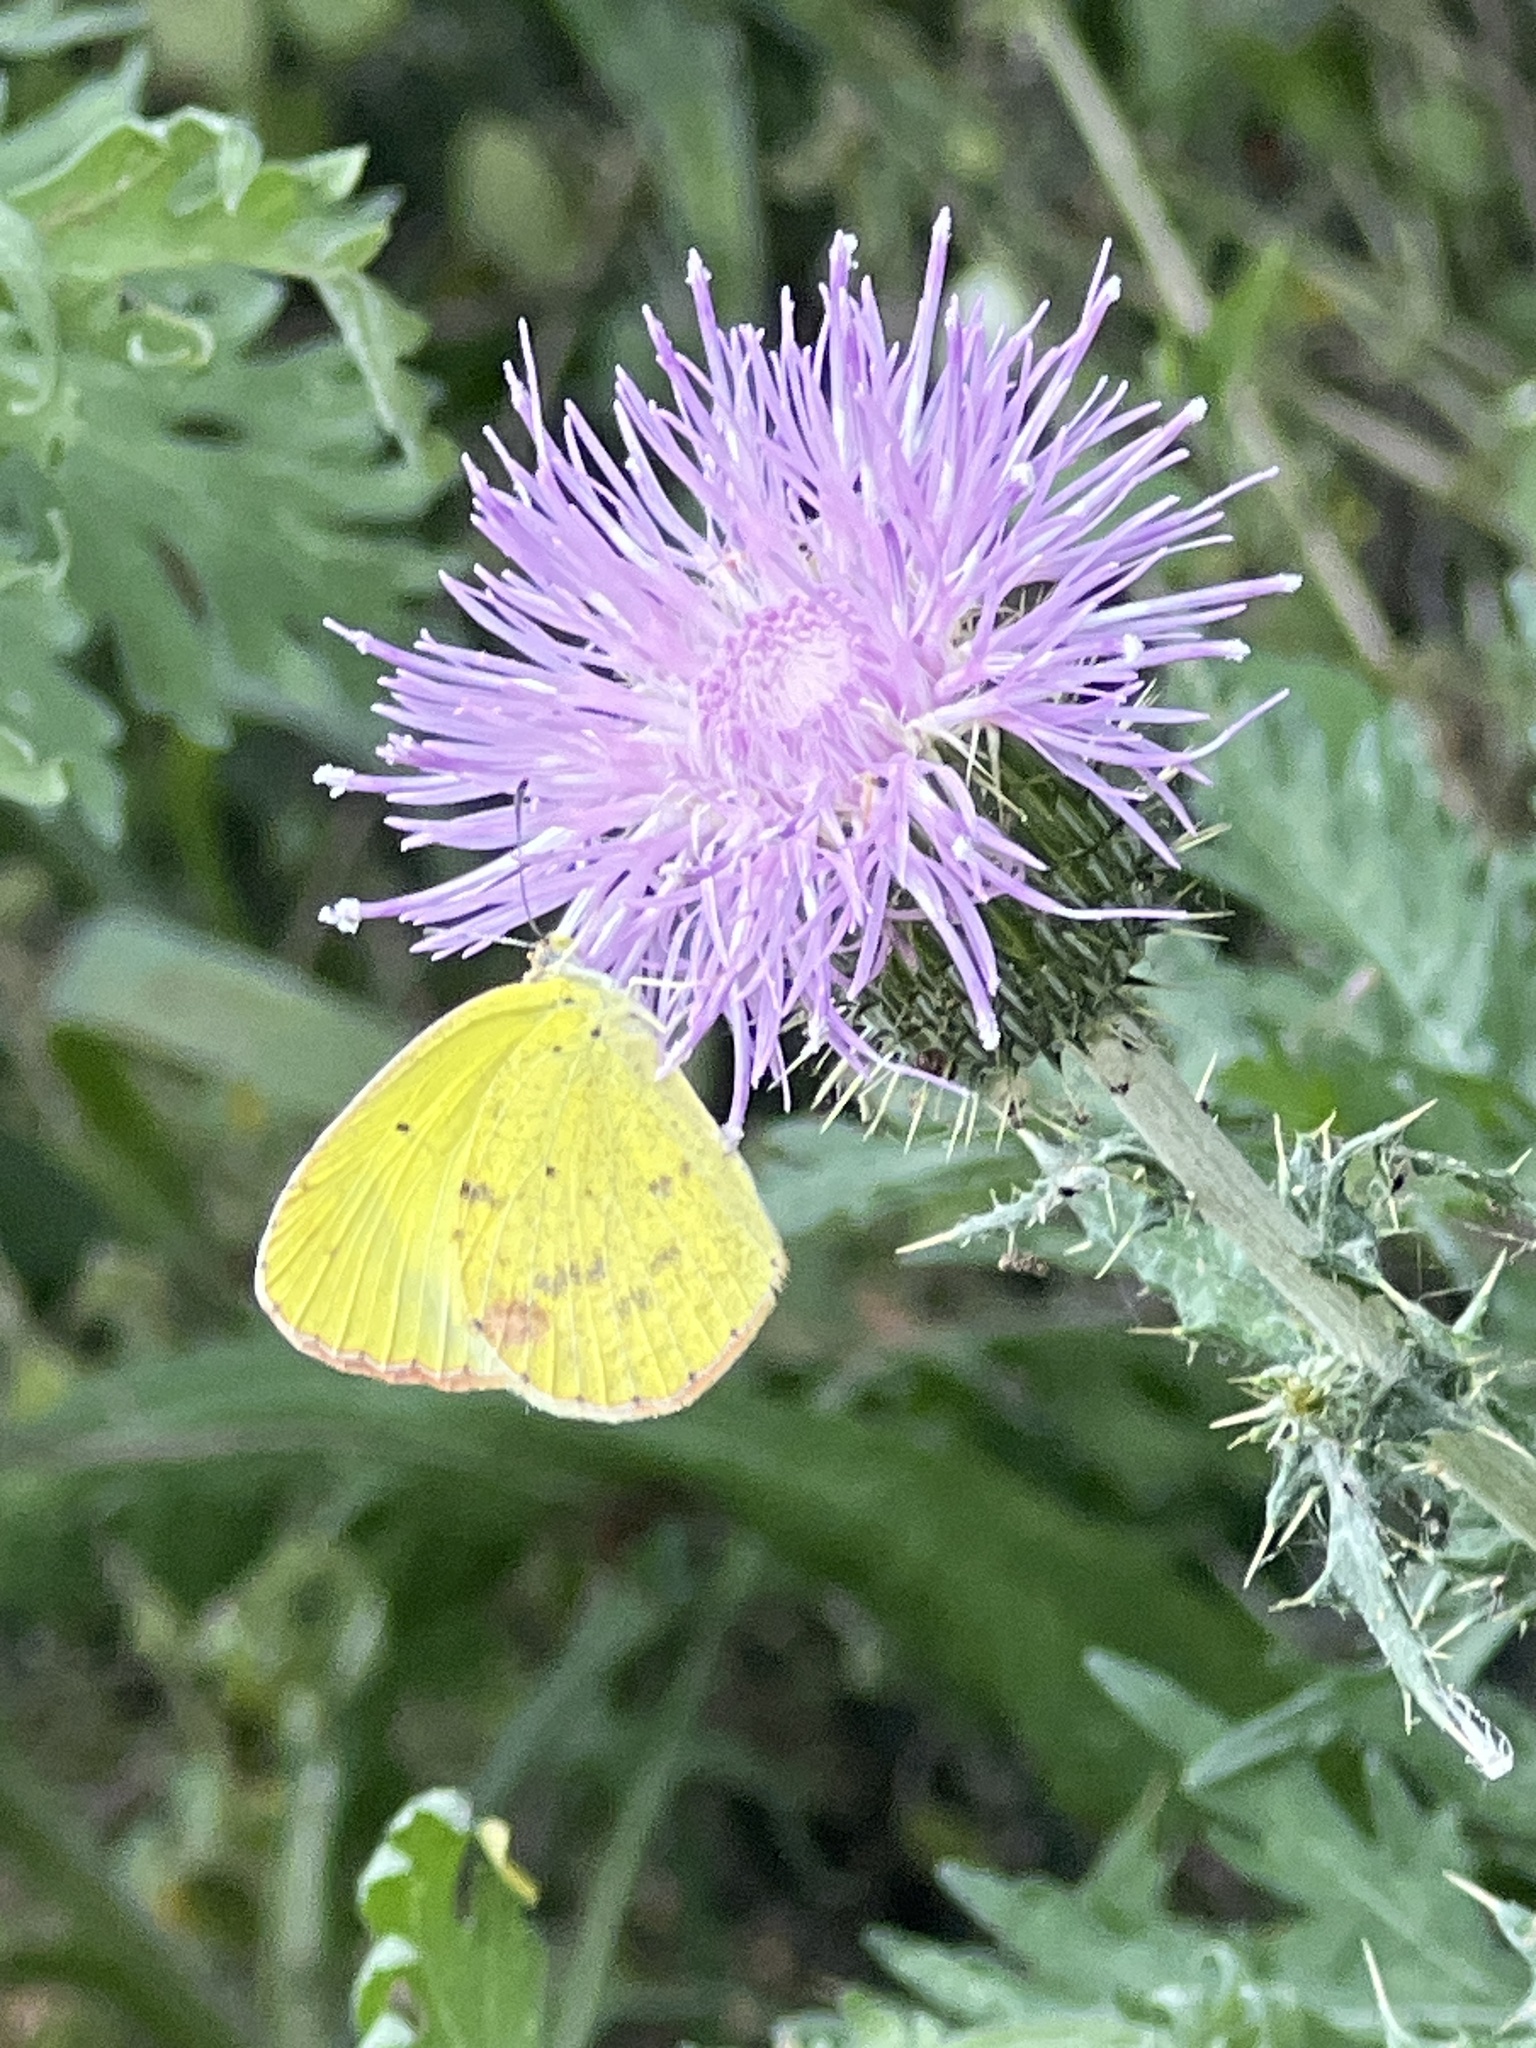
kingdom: Animalia
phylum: Arthropoda
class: Insecta
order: Lepidoptera
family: Pieridae
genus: Pyrisitia
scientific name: Pyrisitia lisa
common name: Little yellow
